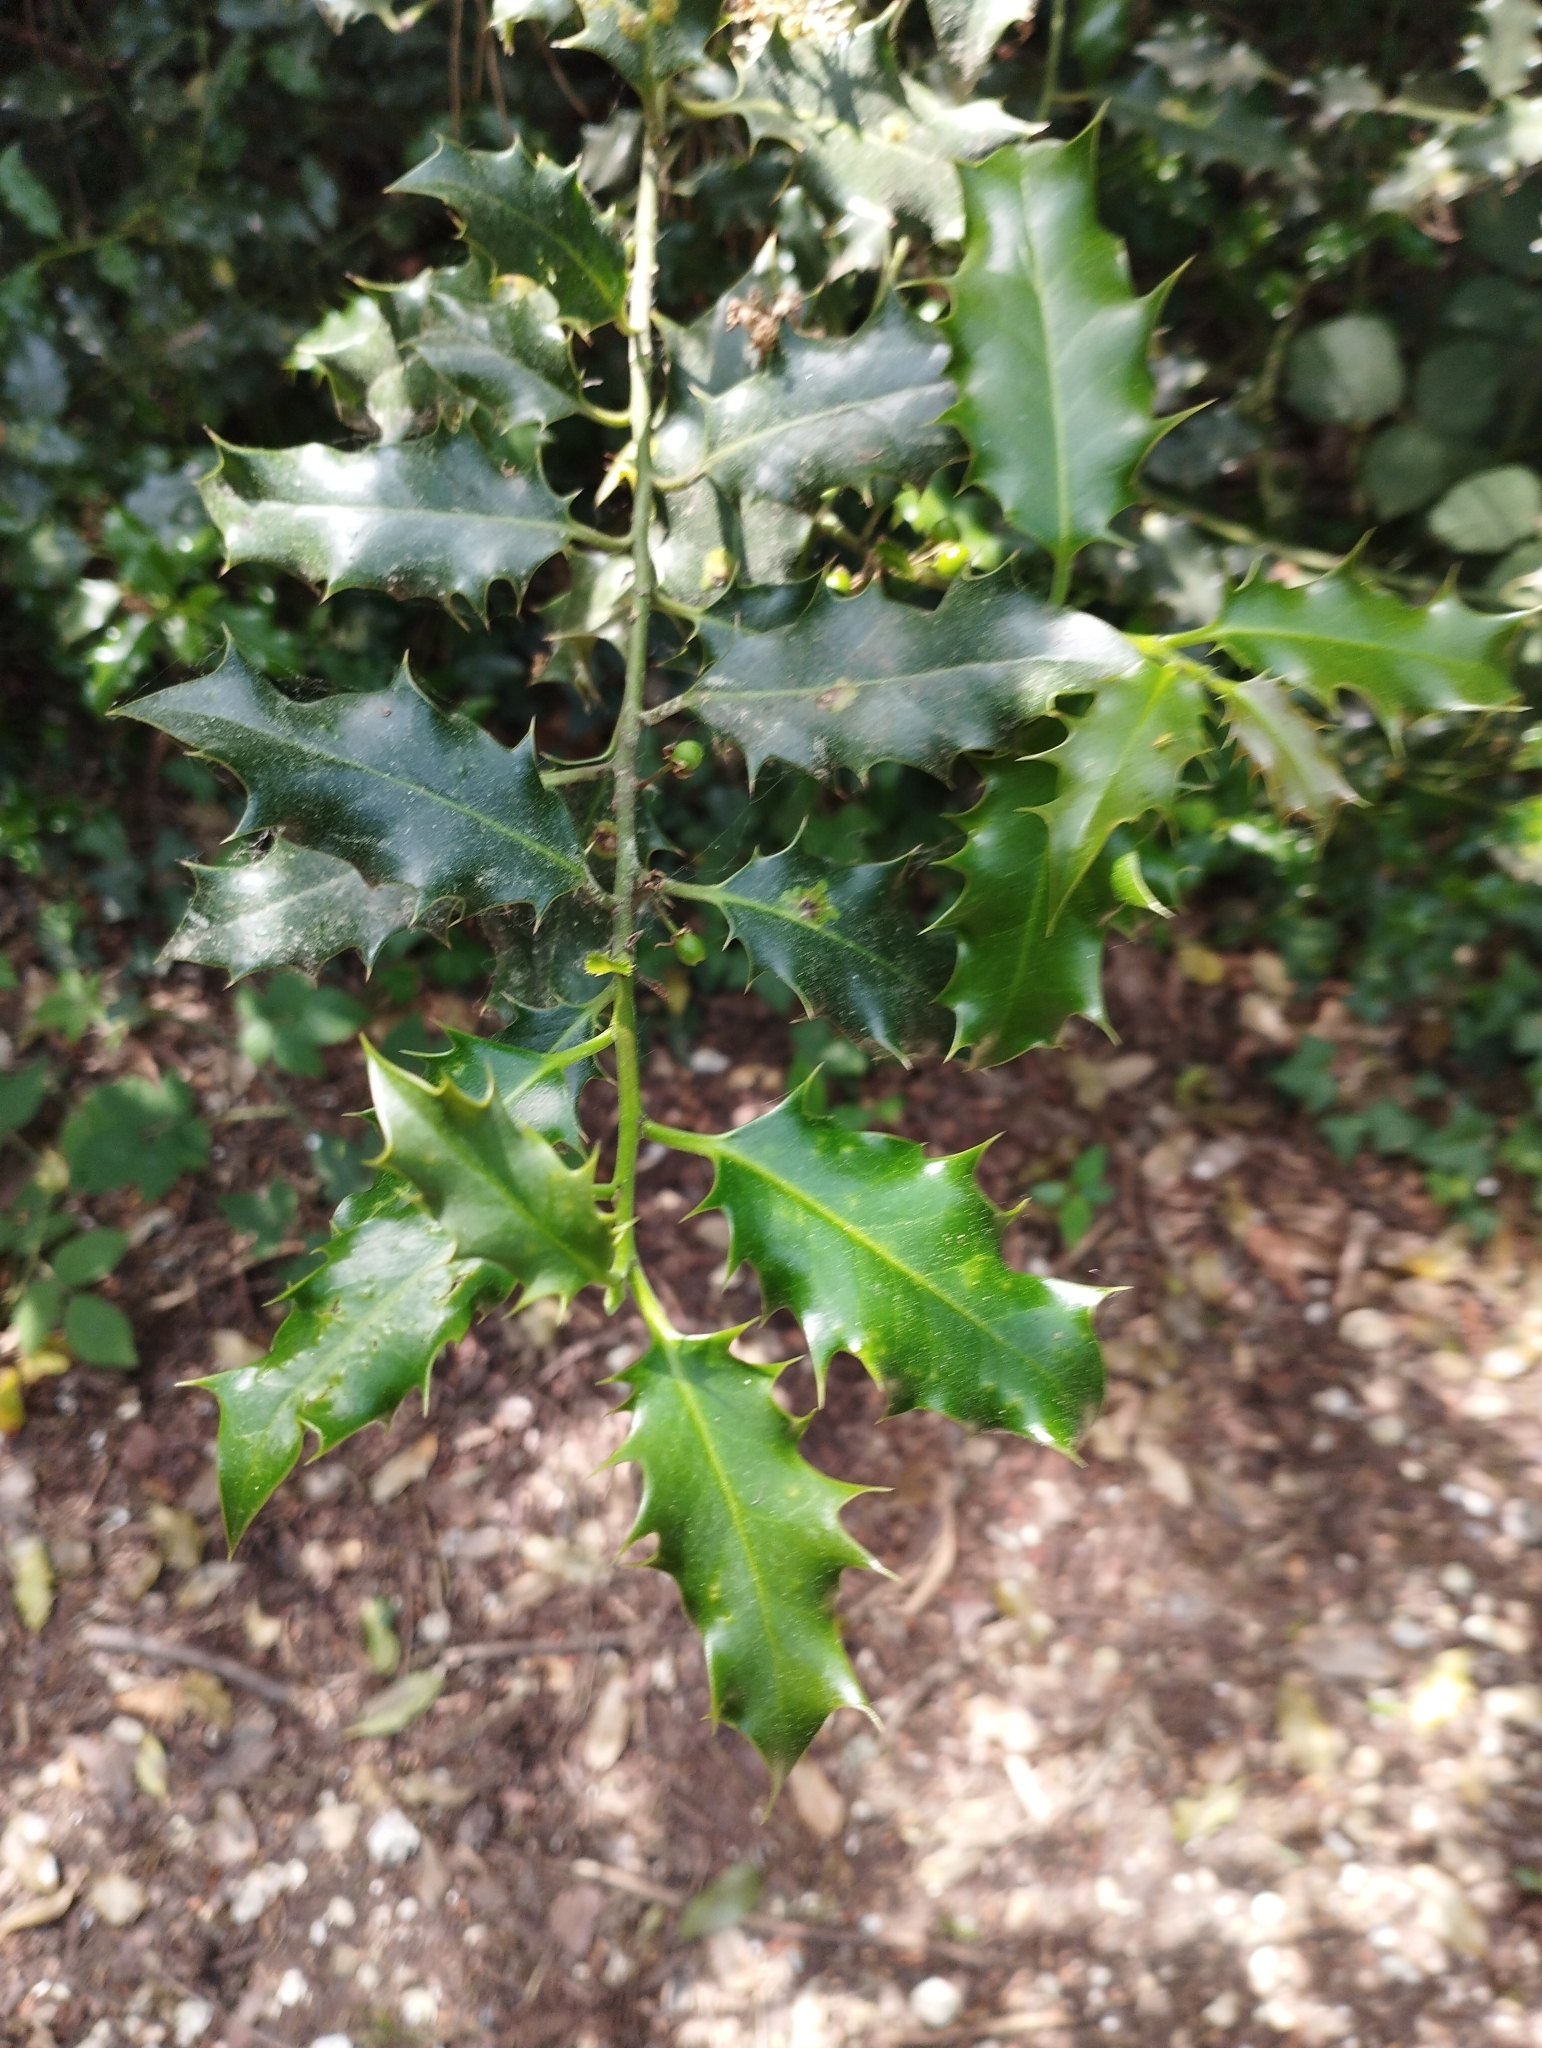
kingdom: Plantae
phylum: Tracheophyta
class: Magnoliopsida
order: Aquifoliales
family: Aquifoliaceae
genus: Ilex
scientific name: Ilex aquifolium
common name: English holly
